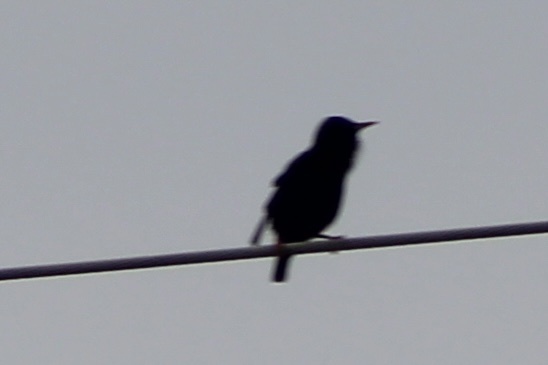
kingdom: Animalia
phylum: Chordata
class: Aves
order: Passeriformes
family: Sturnidae
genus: Sturnus
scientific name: Sturnus vulgaris
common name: Common starling
